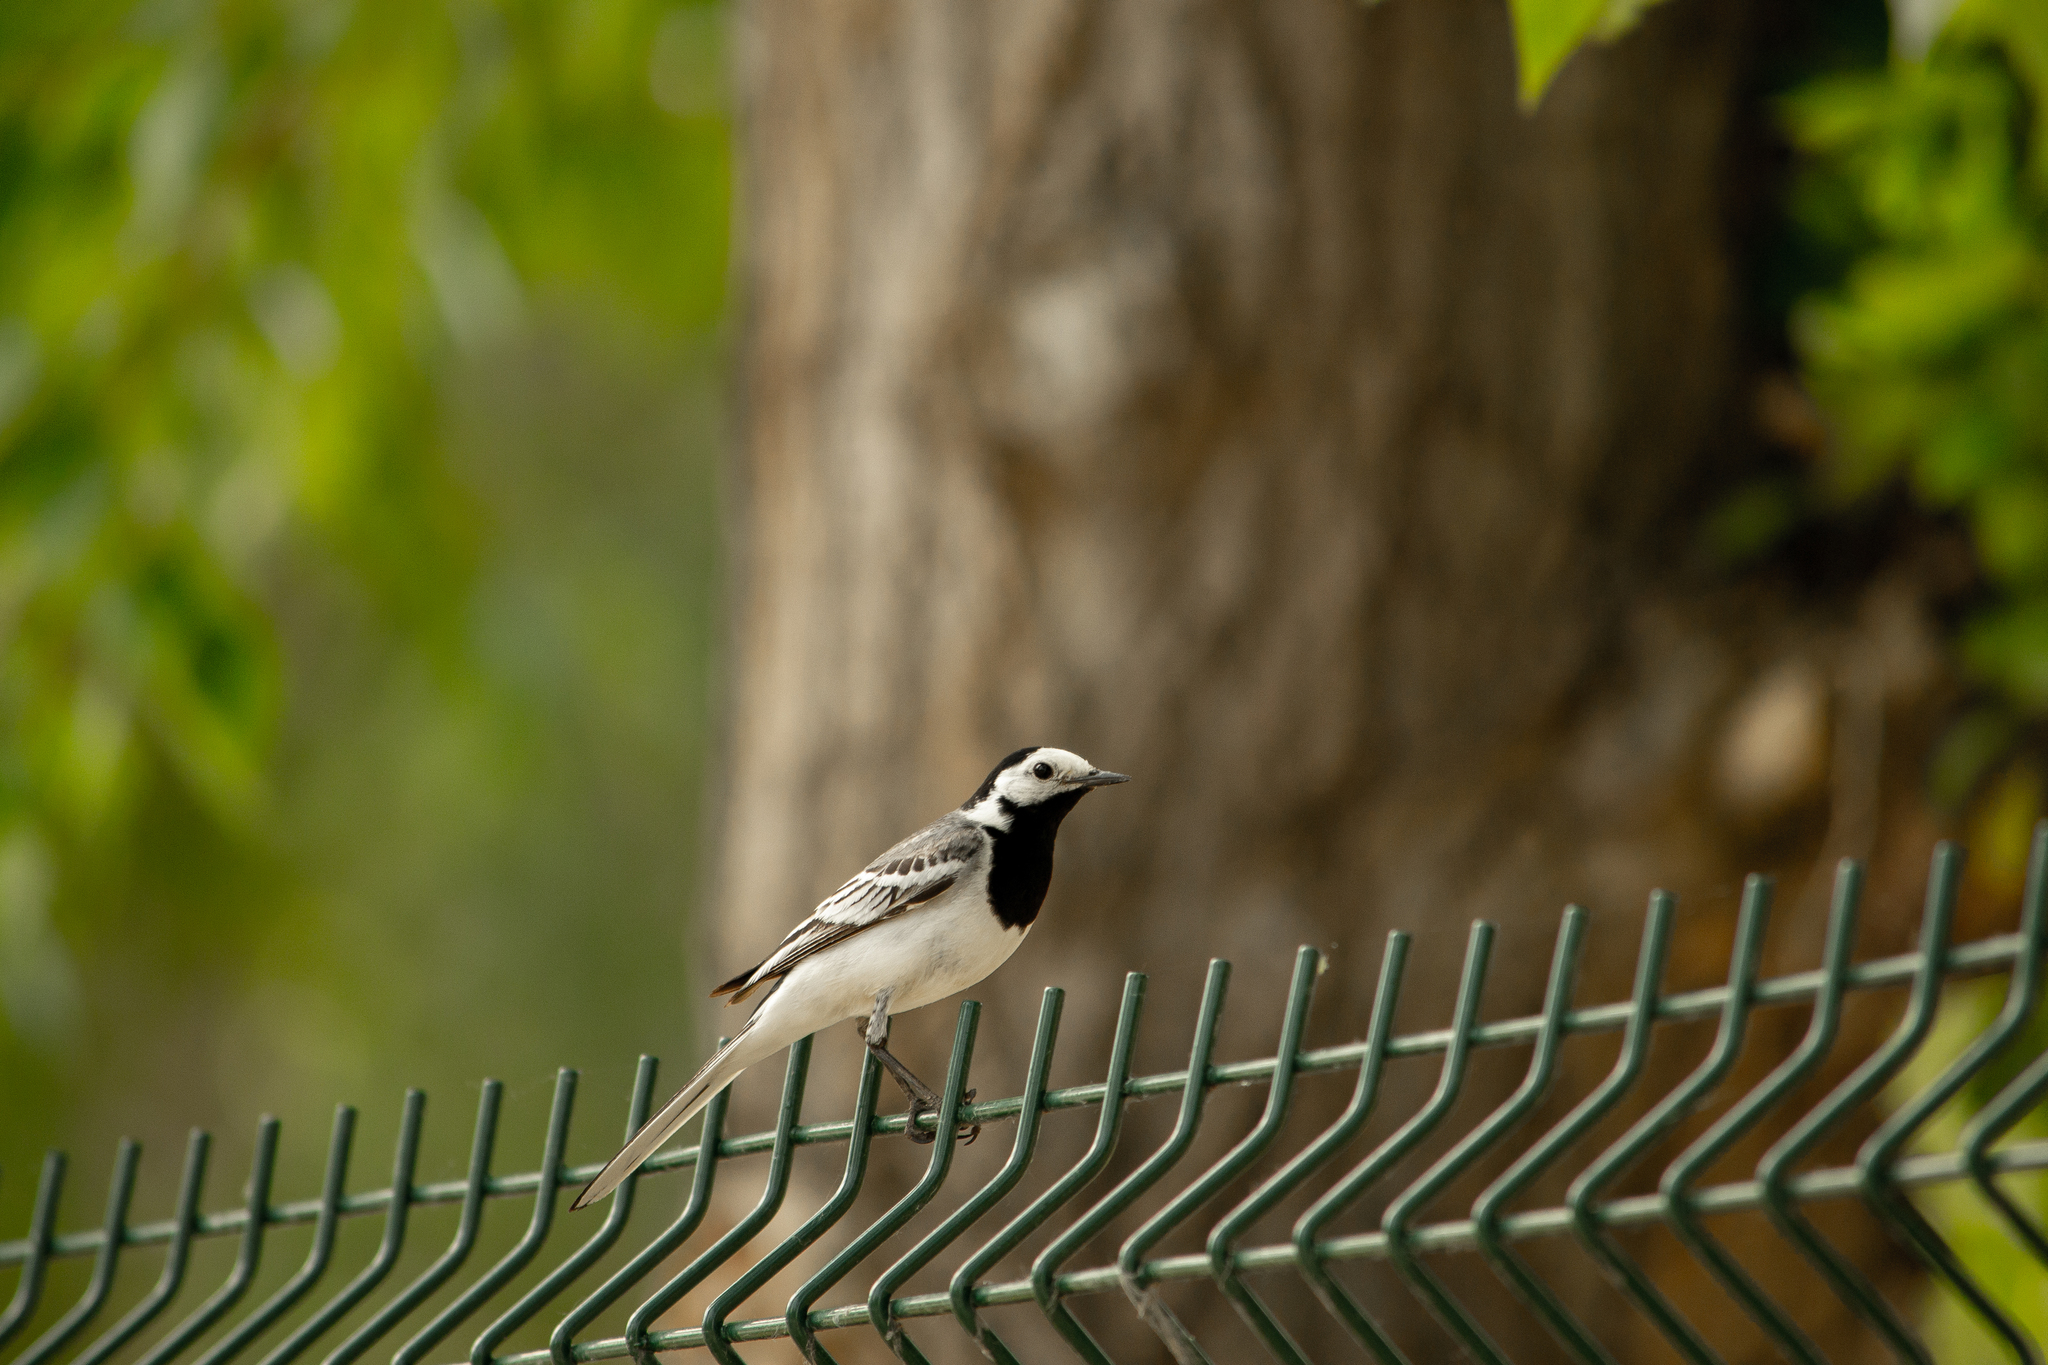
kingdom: Animalia
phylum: Chordata
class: Aves
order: Passeriformes
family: Motacillidae
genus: Motacilla
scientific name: Motacilla alba
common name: White wagtail
